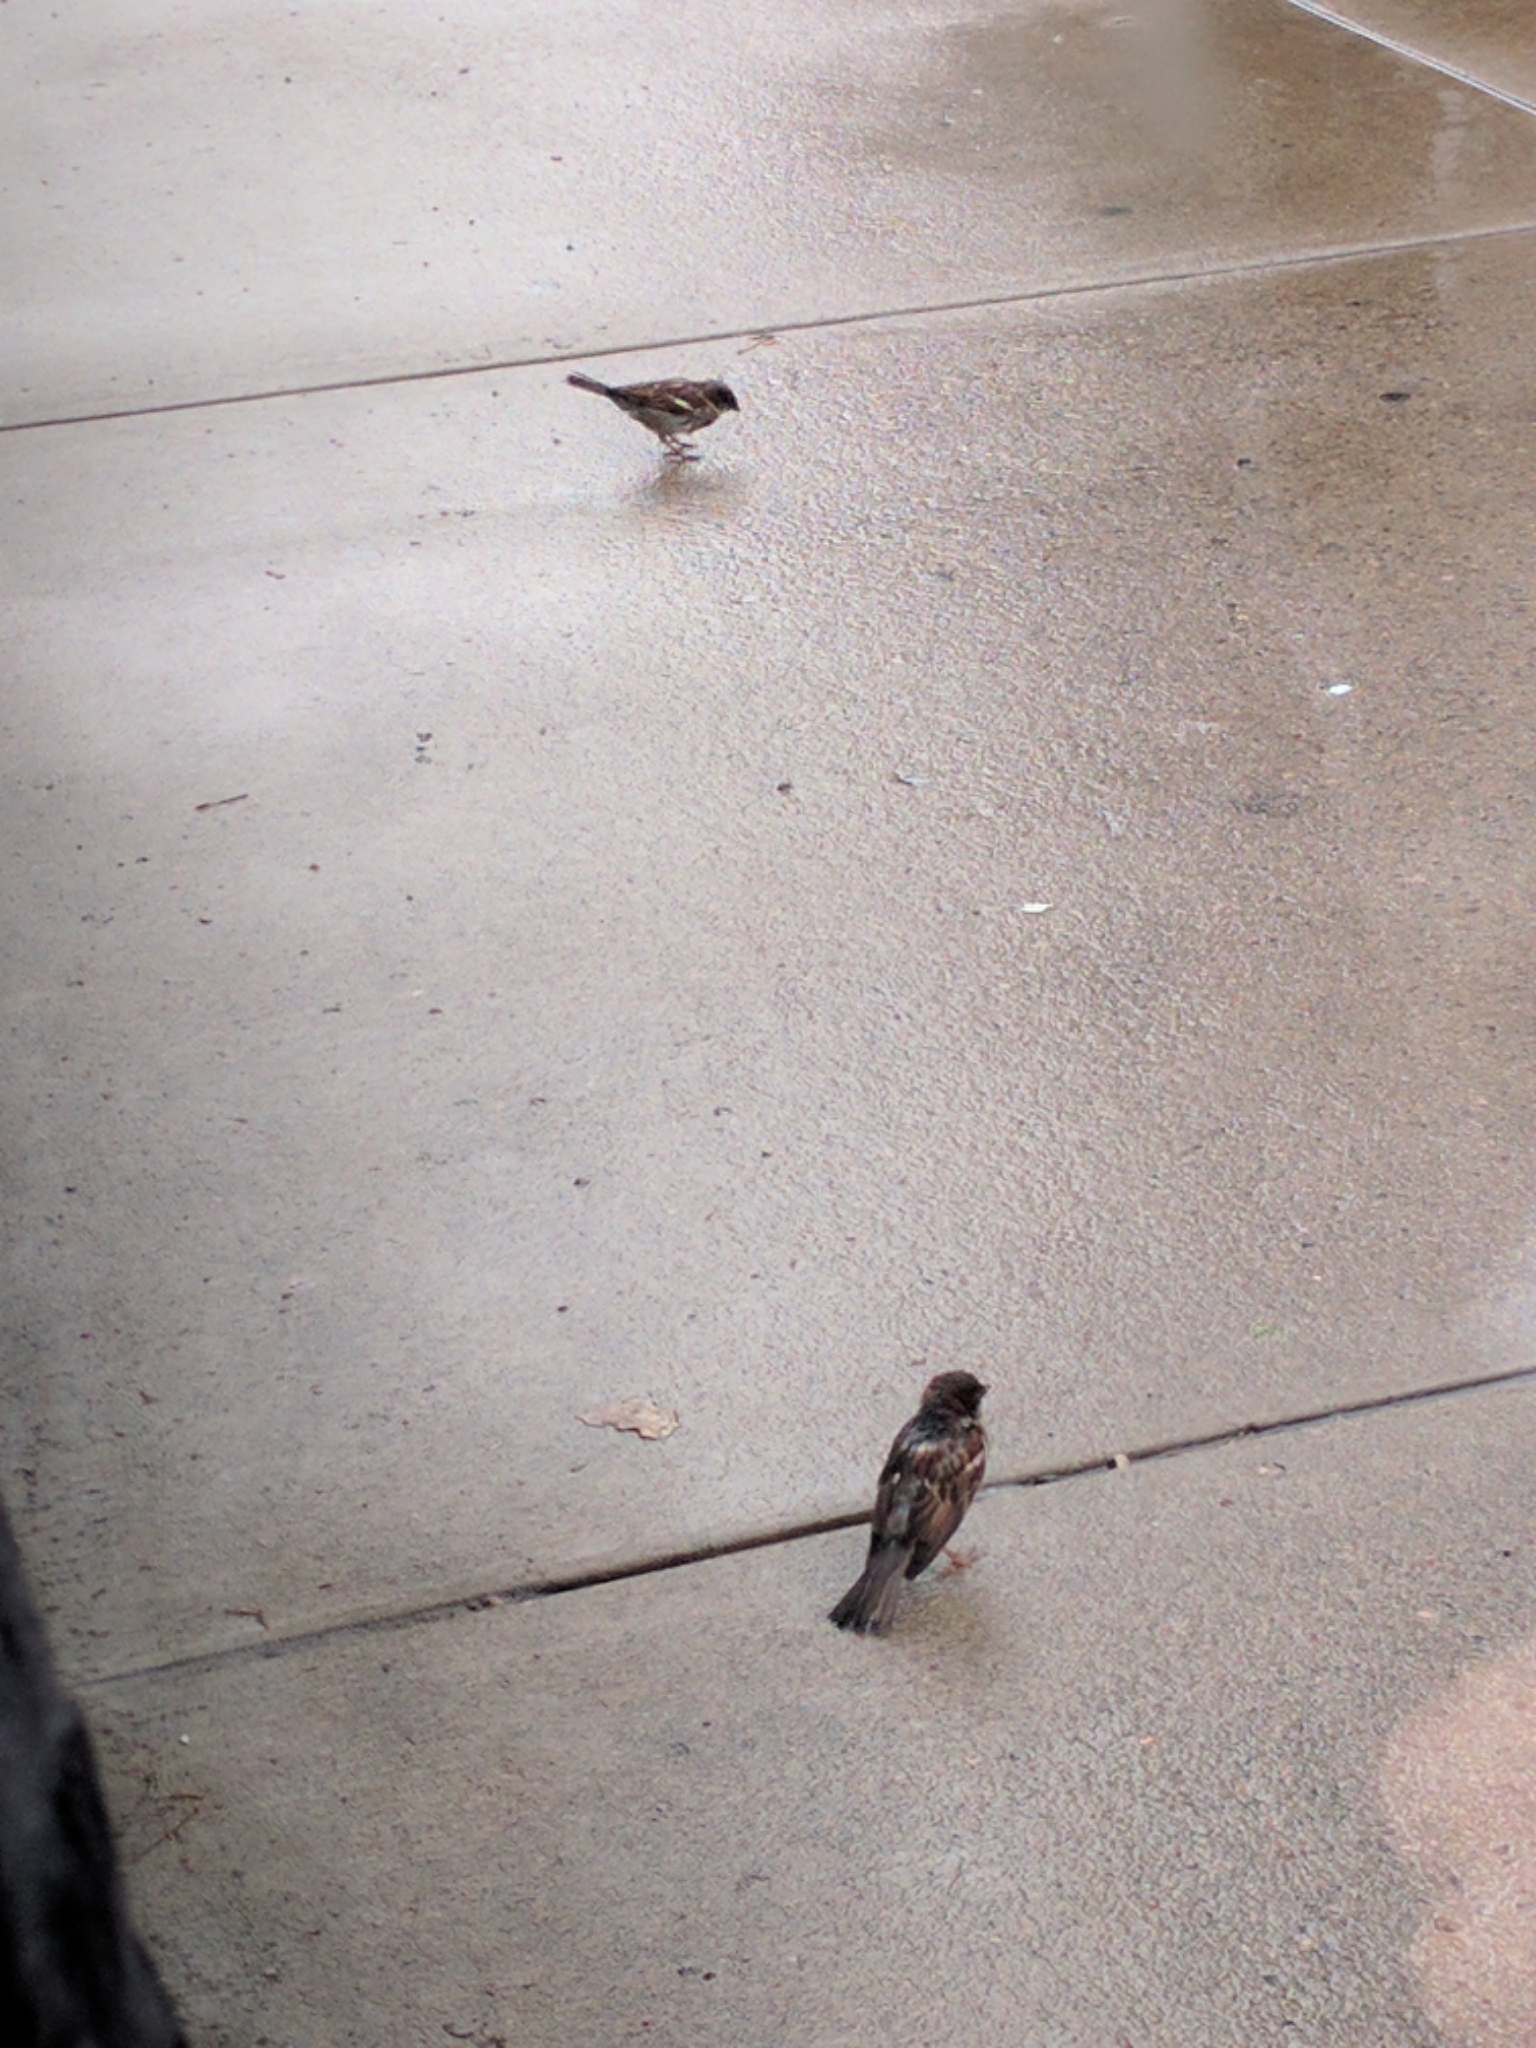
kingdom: Animalia
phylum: Chordata
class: Aves
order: Passeriformes
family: Passeridae
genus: Passer
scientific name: Passer domesticus
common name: House sparrow
